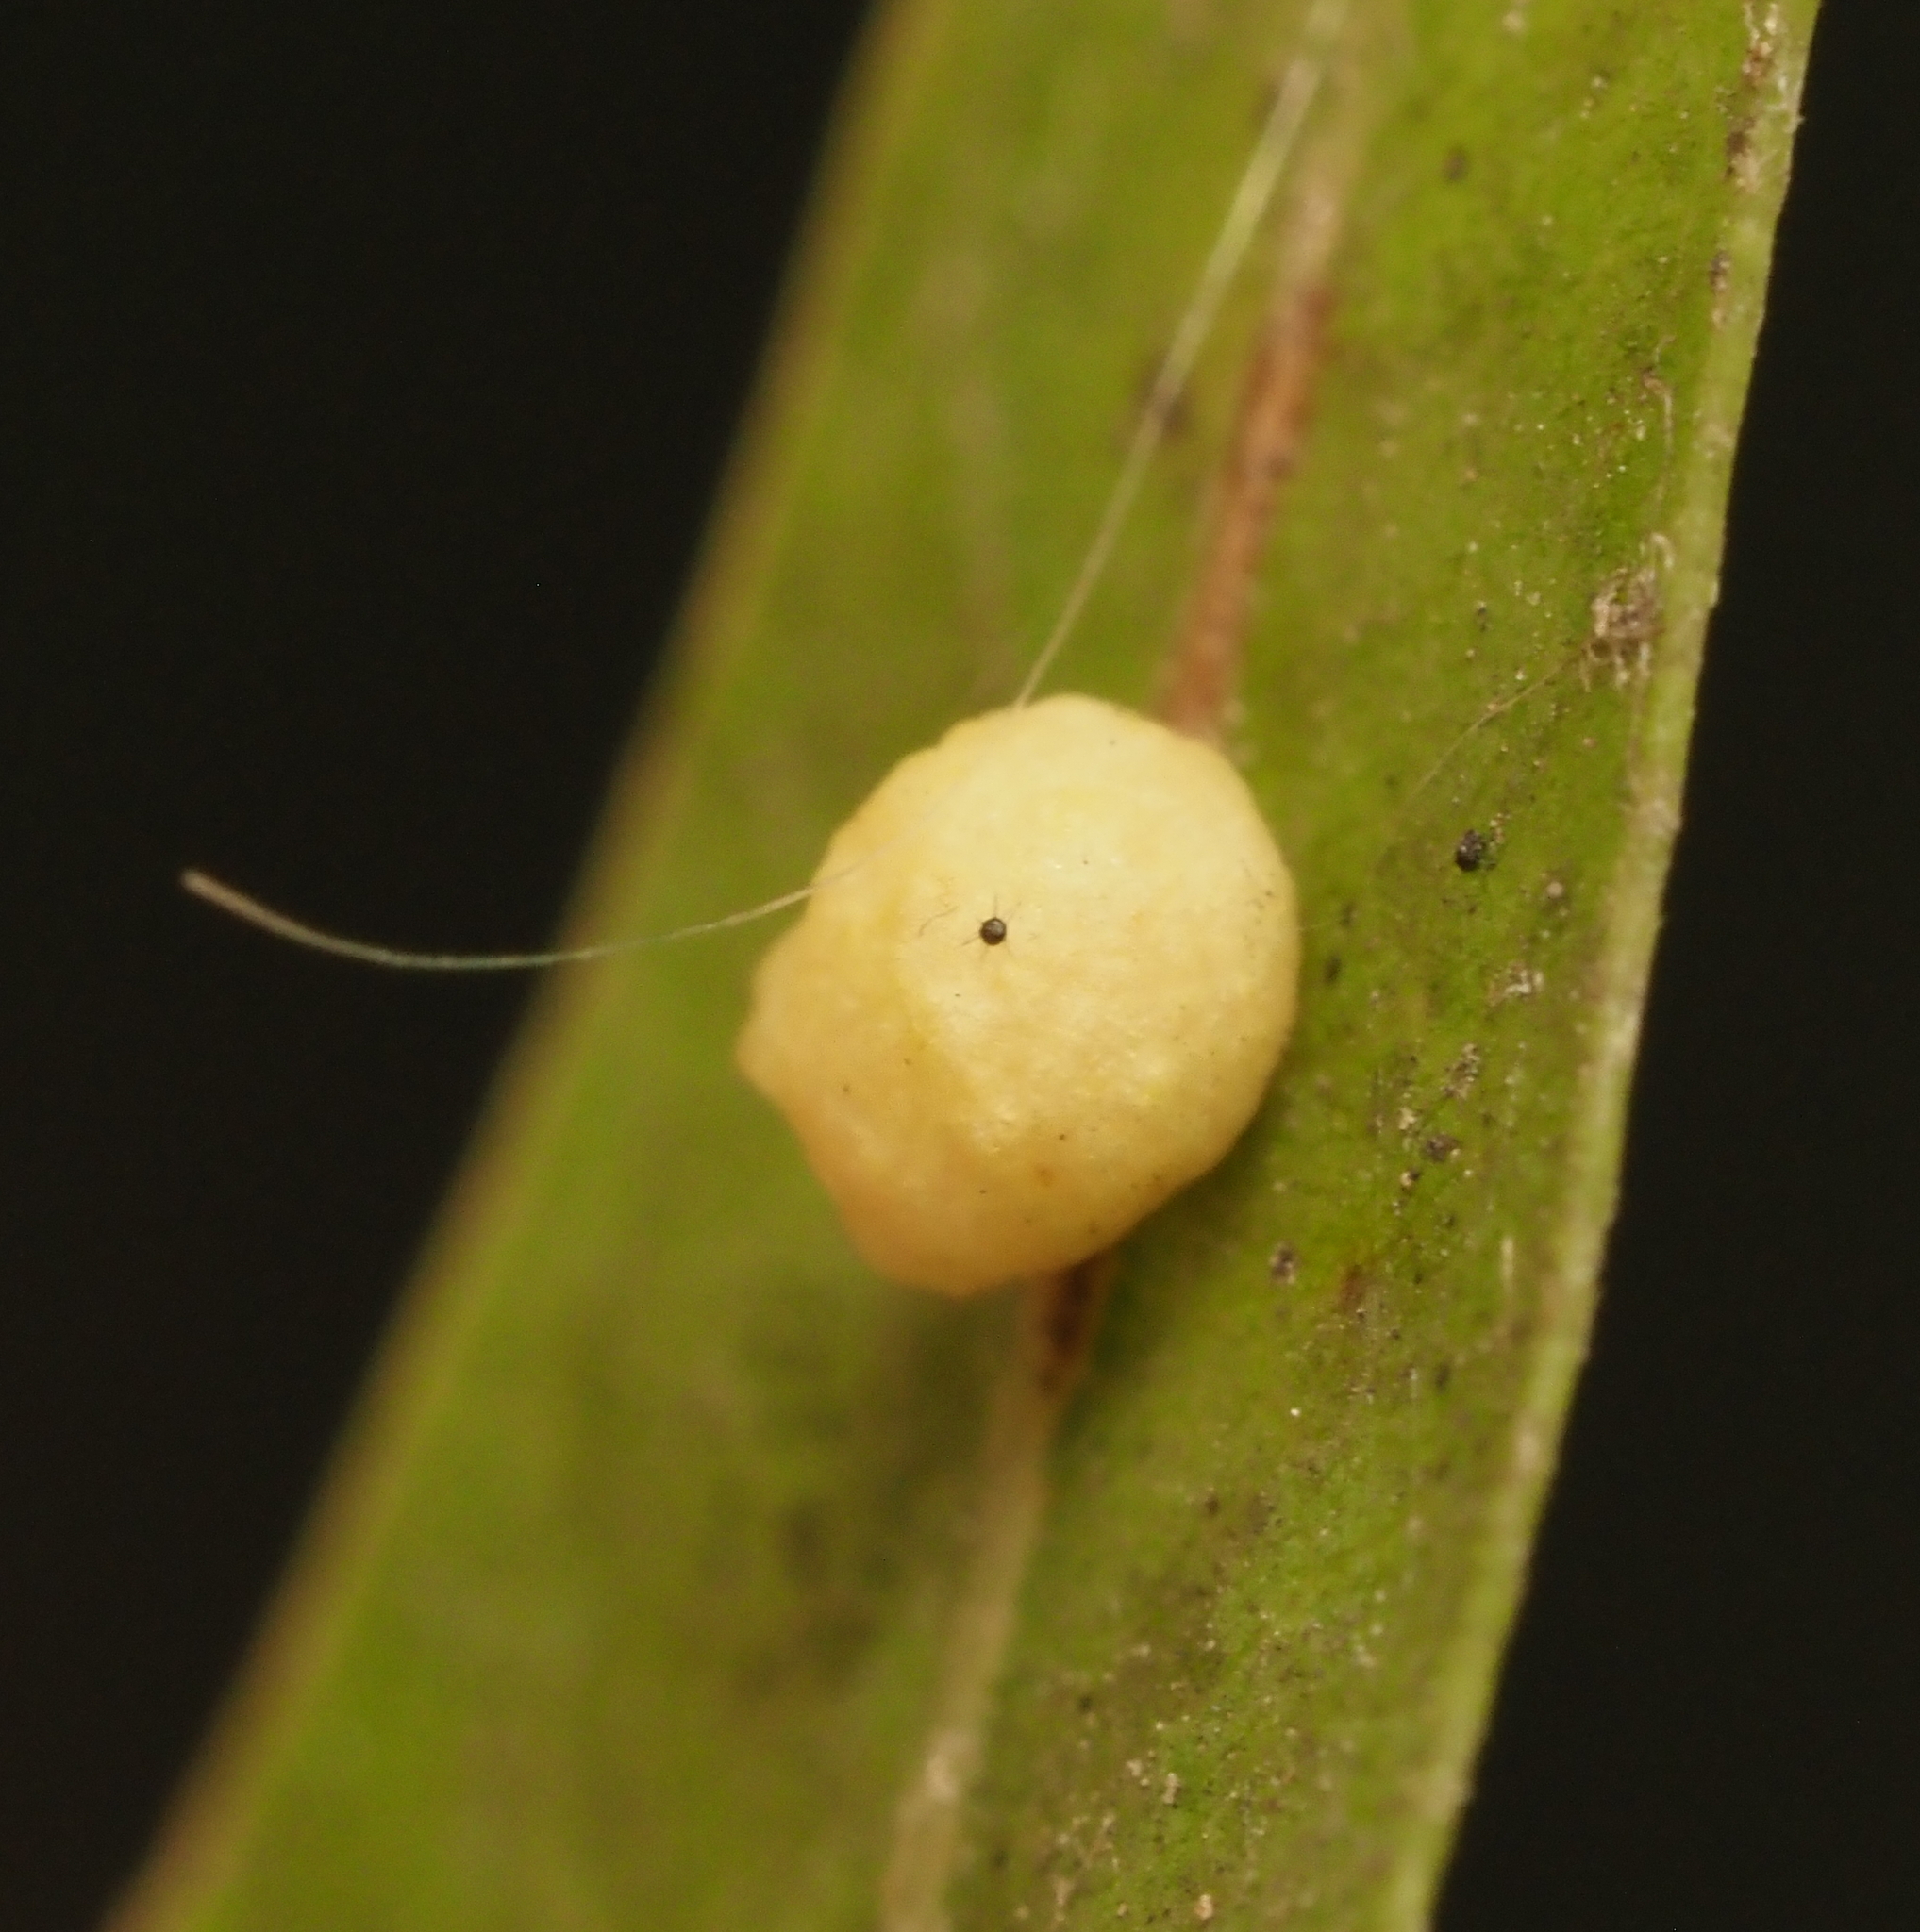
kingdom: Animalia
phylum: Arthropoda
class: Insecta
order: Hymenoptera
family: Cynipidae
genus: Zopheroteras
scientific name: Zopheroteras
